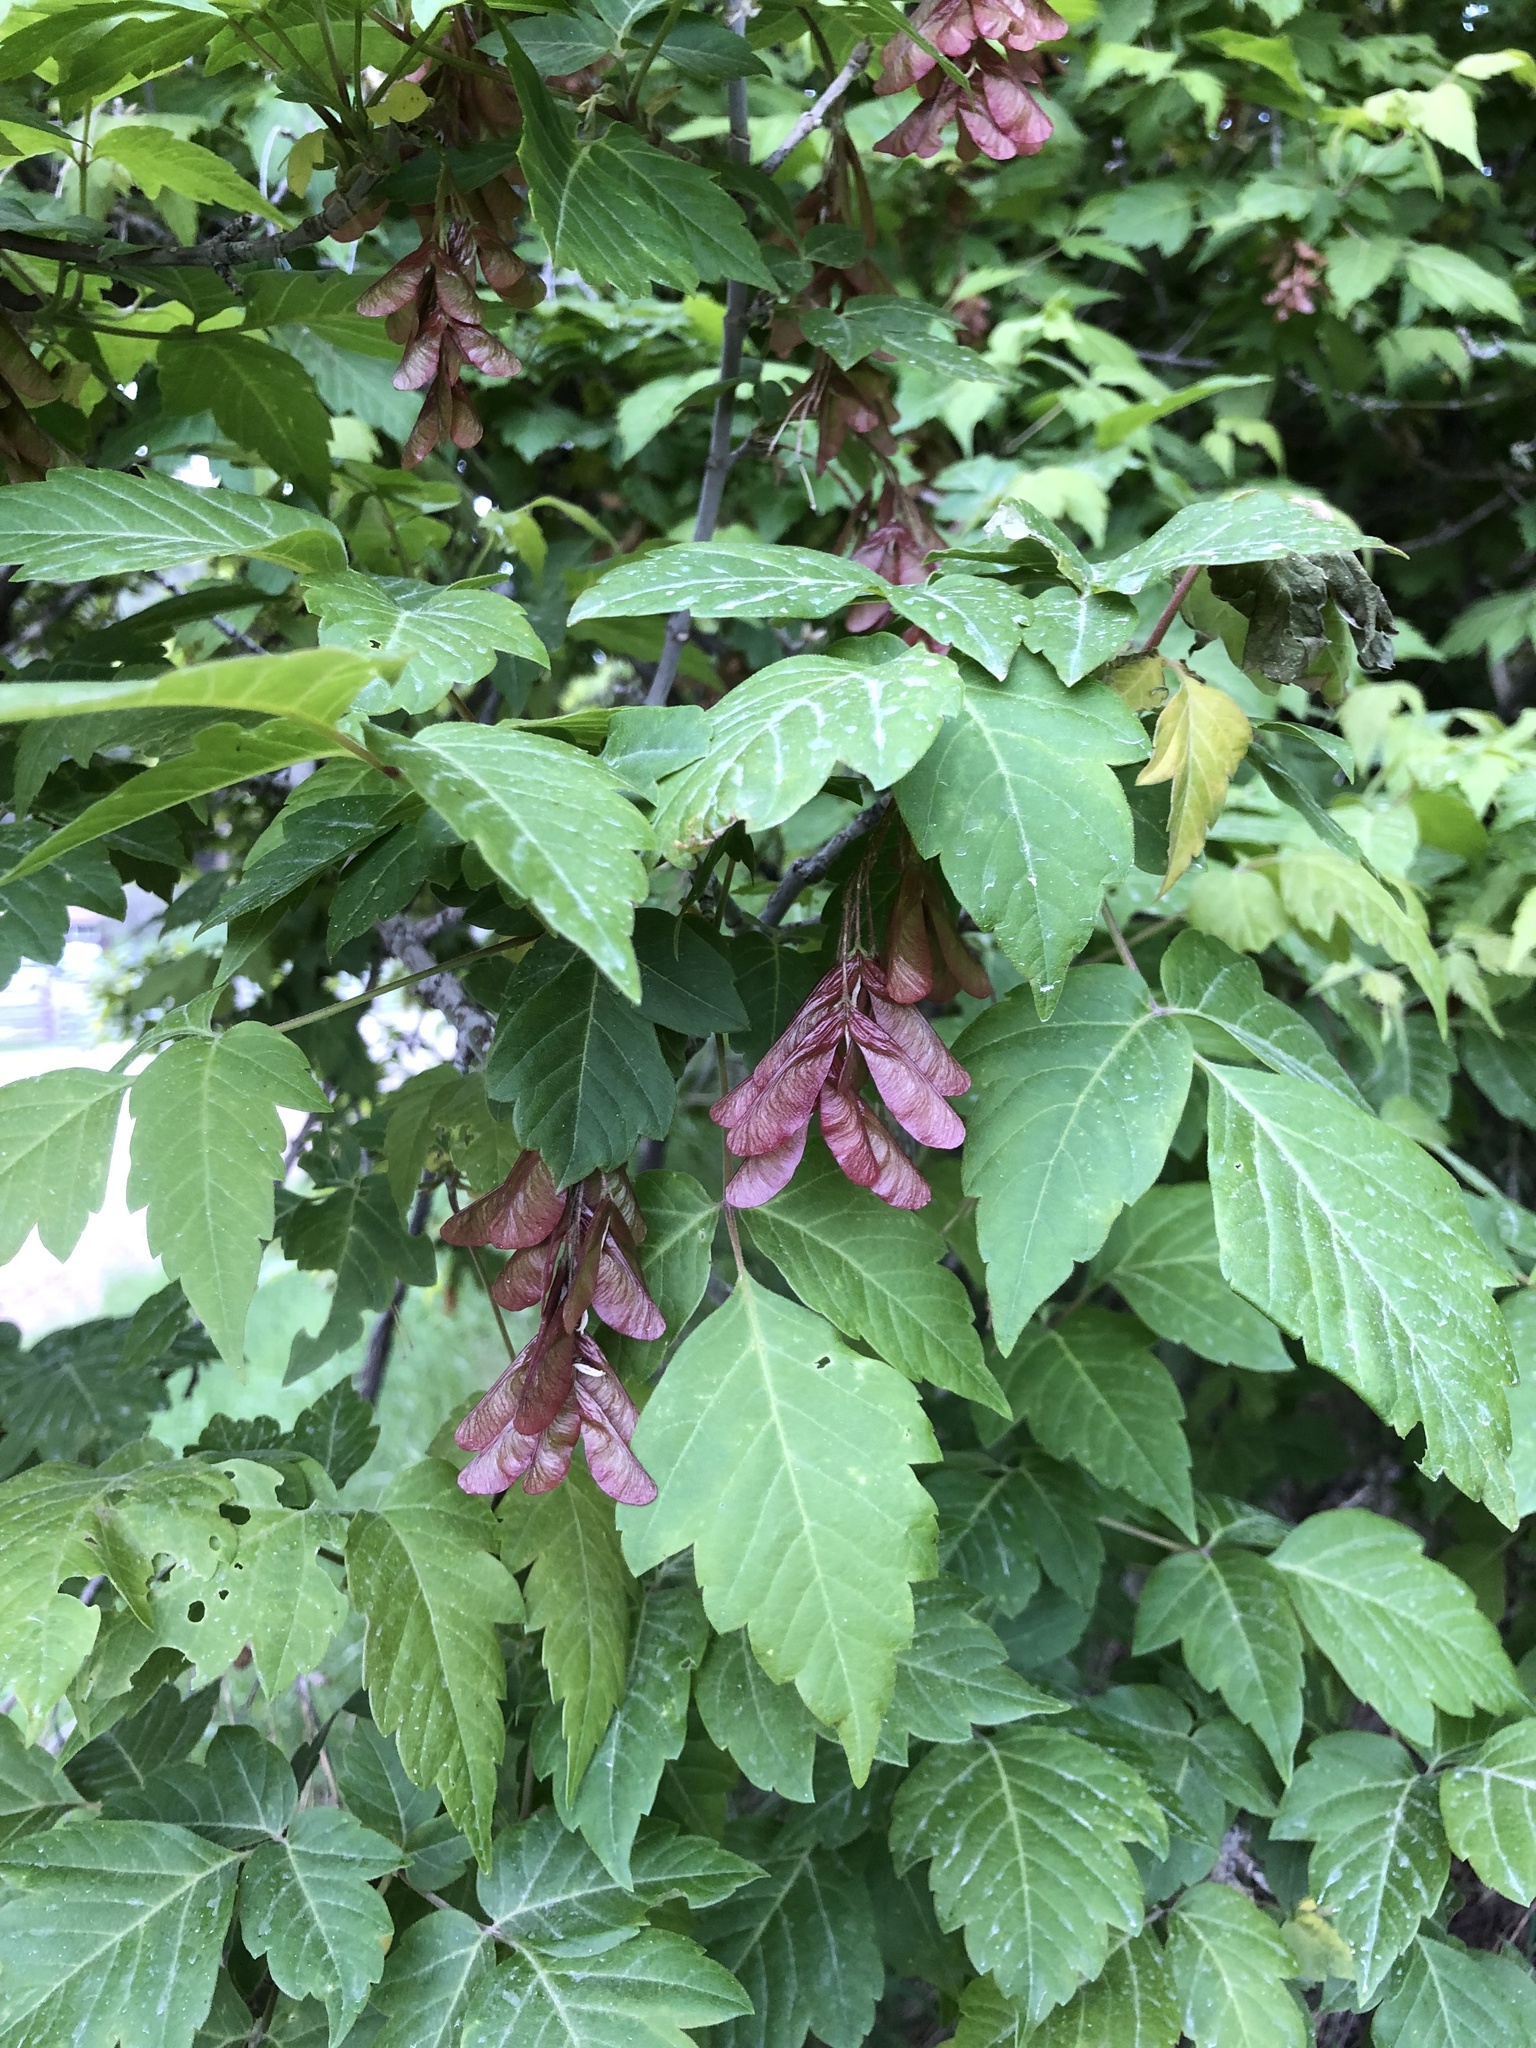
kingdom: Plantae
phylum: Tracheophyta
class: Magnoliopsida
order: Sapindales
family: Sapindaceae
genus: Acer
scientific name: Acer negundo
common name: Ashleaf maple
